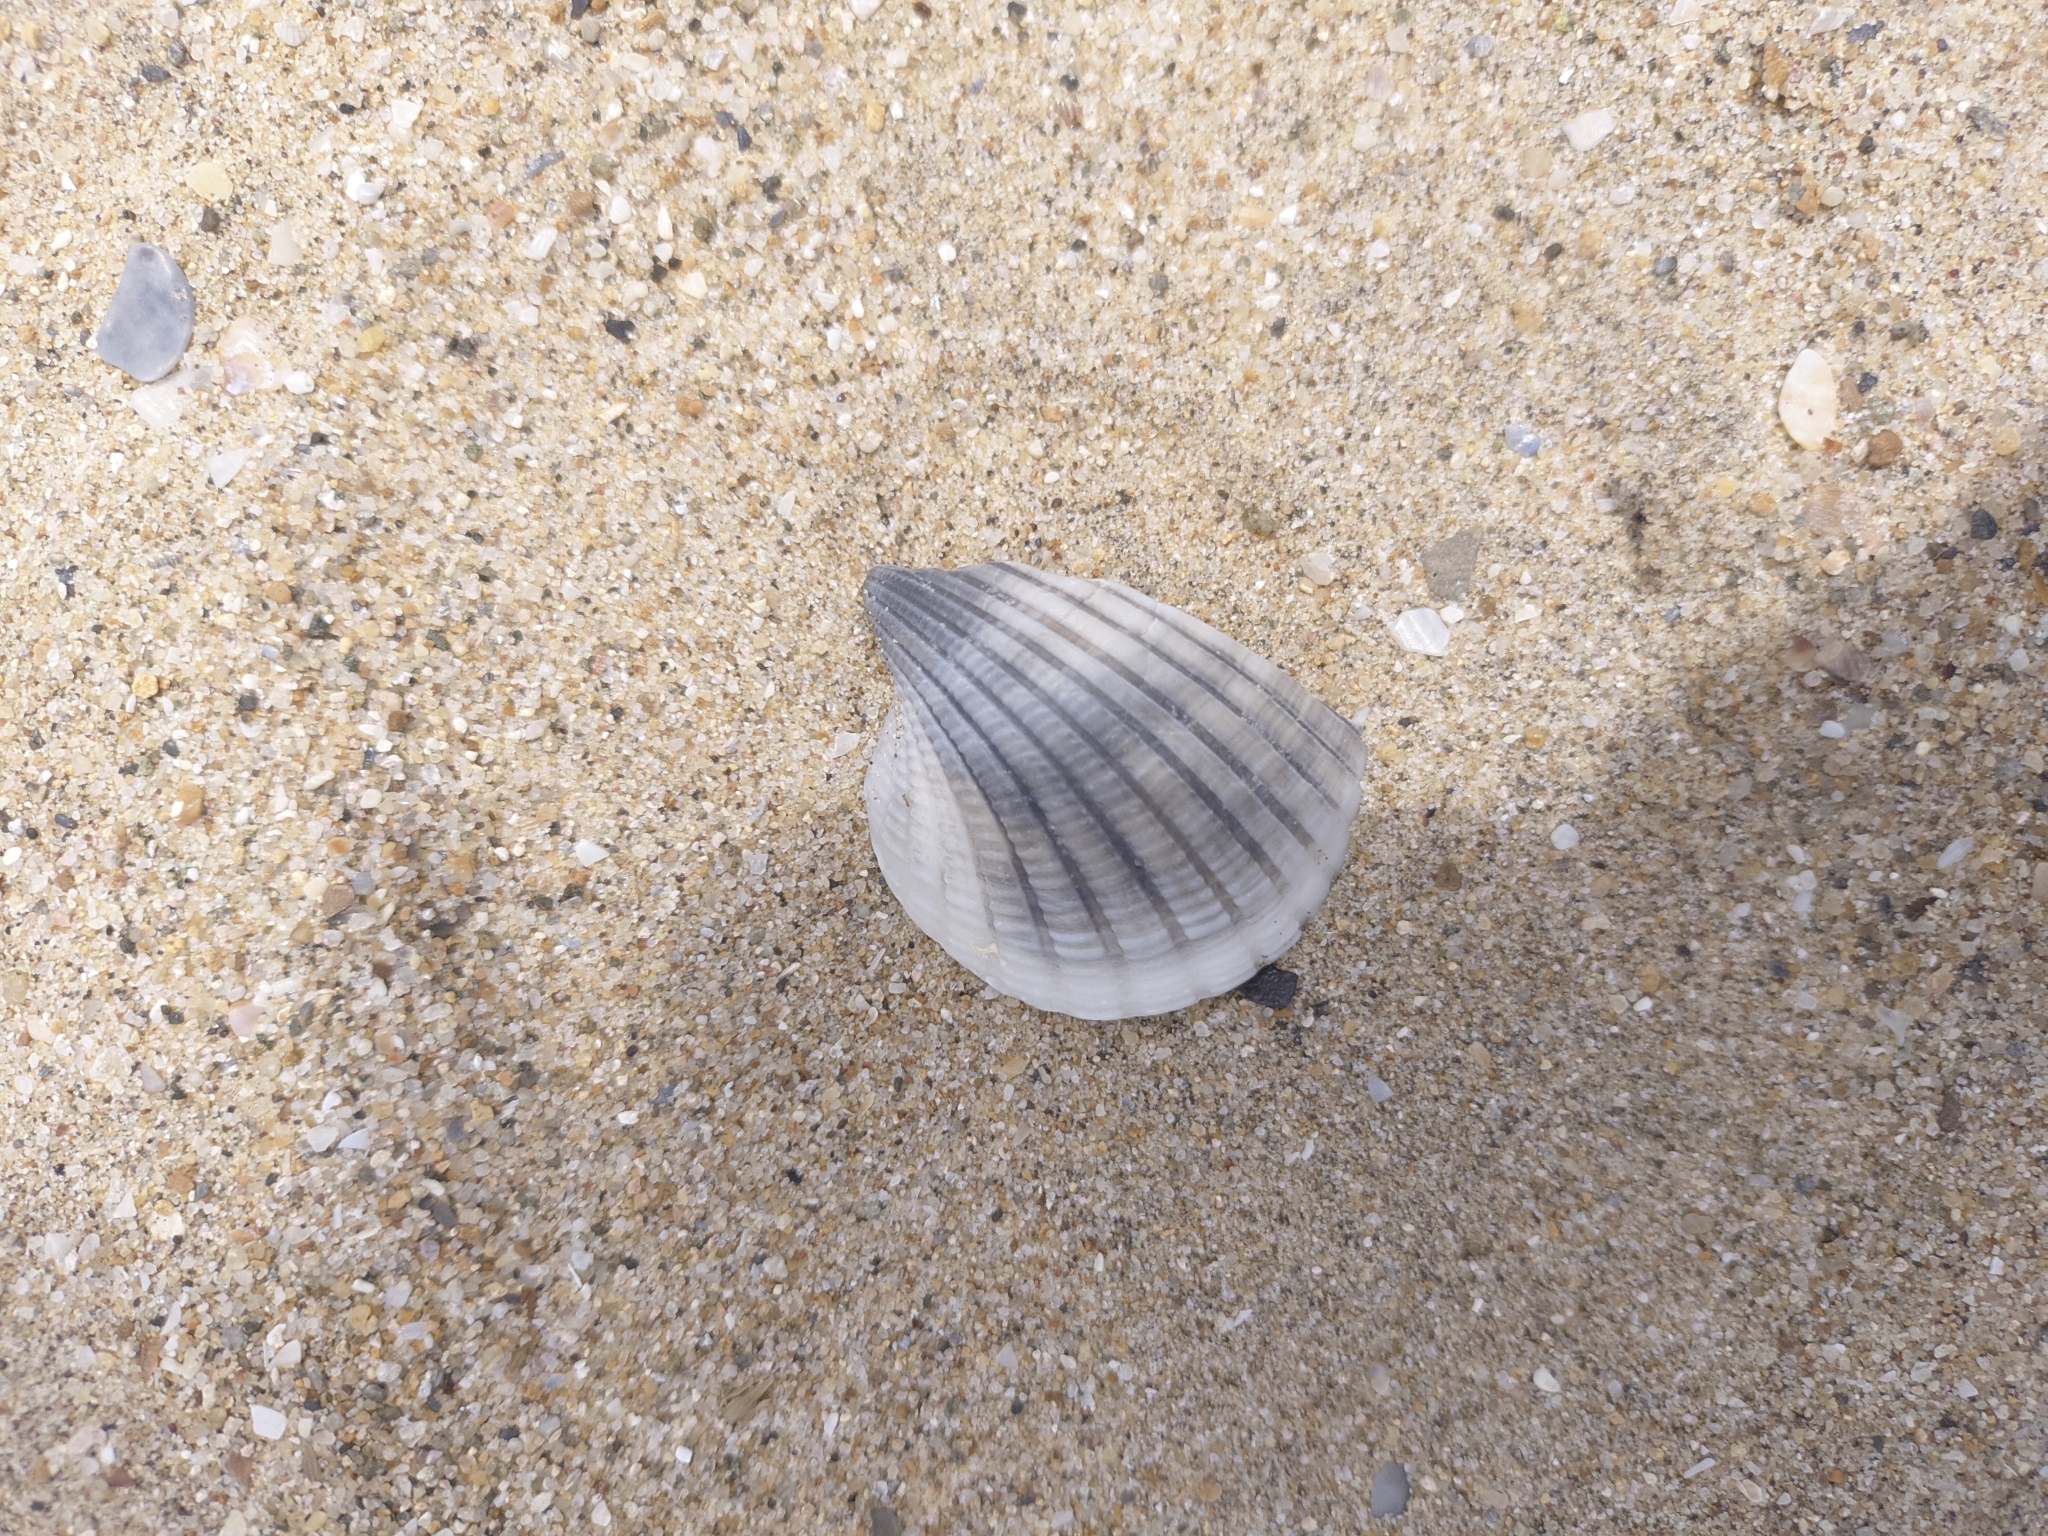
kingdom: Animalia
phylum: Mollusca
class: Bivalvia
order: Arcida
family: Arcidae
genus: Anadara
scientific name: Anadara brasiliana
